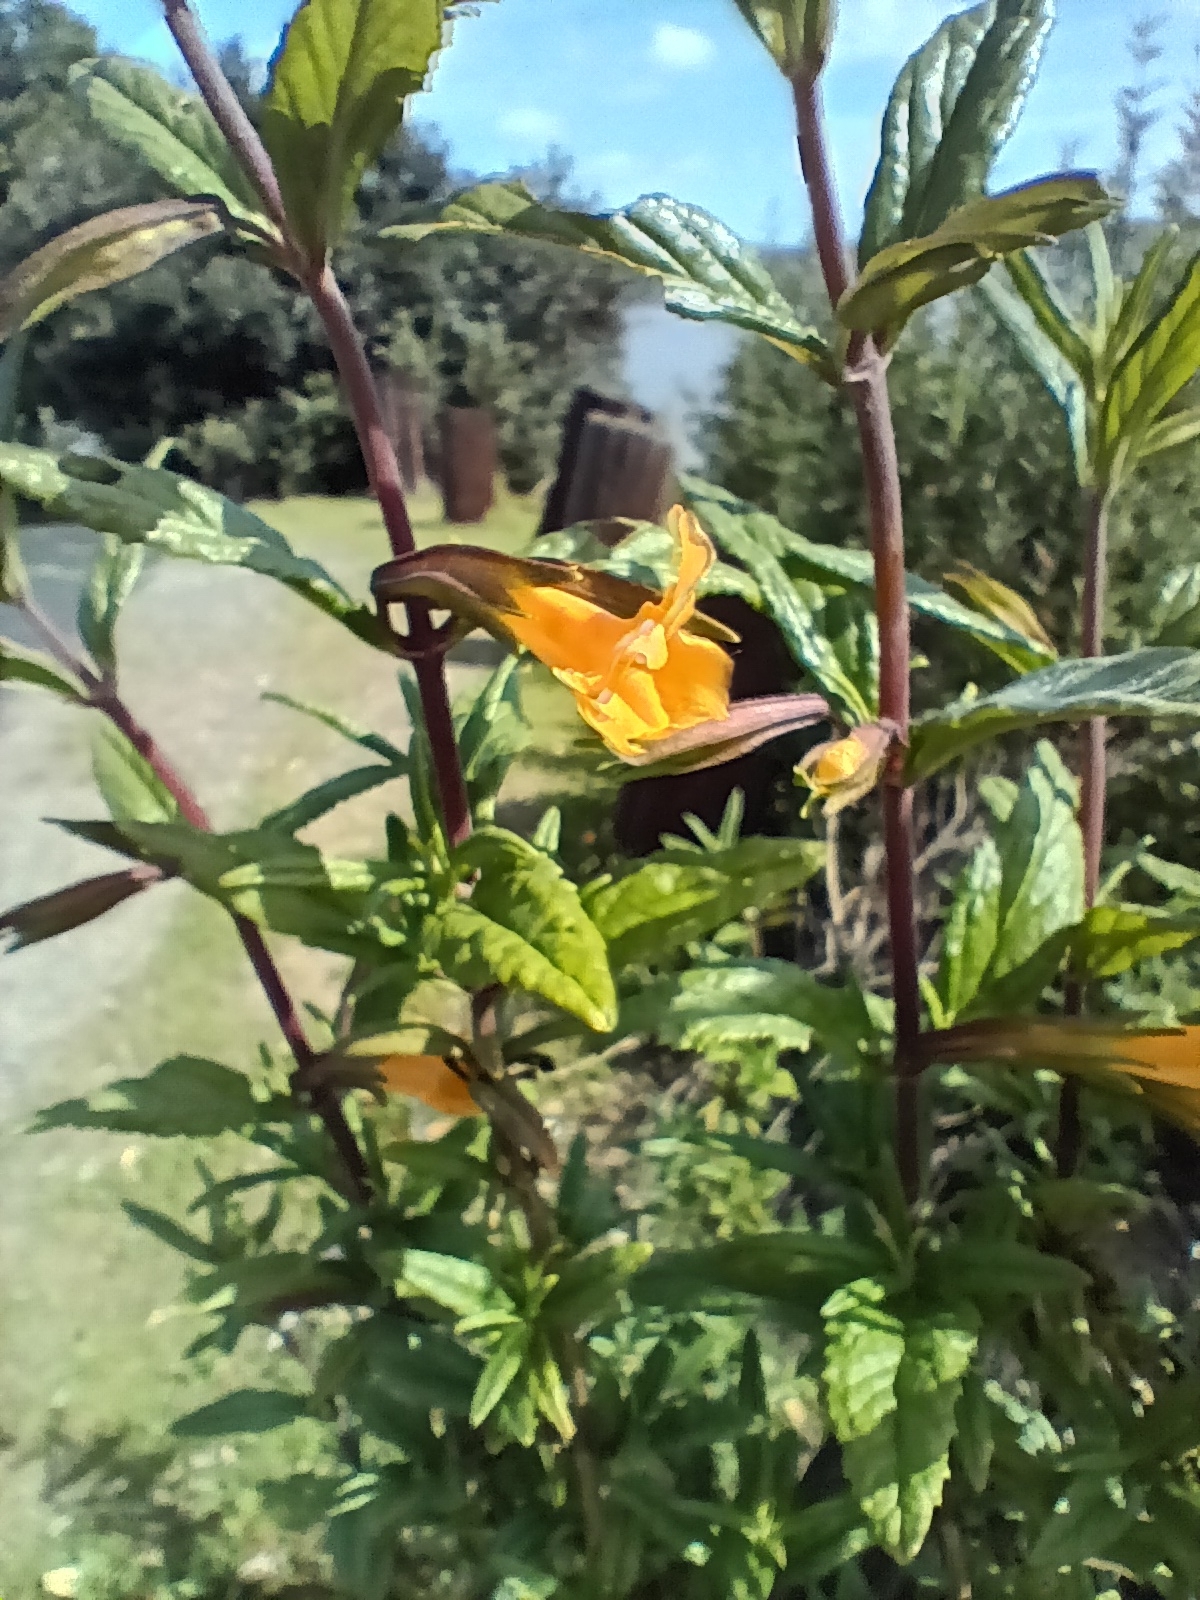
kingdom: Plantae
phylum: Tracheophyta
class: Magnoliopsida
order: Lamiales
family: Phrymaceae
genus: Diplacus
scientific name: Diplacus aurantiacus
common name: Bush monkey-flower
